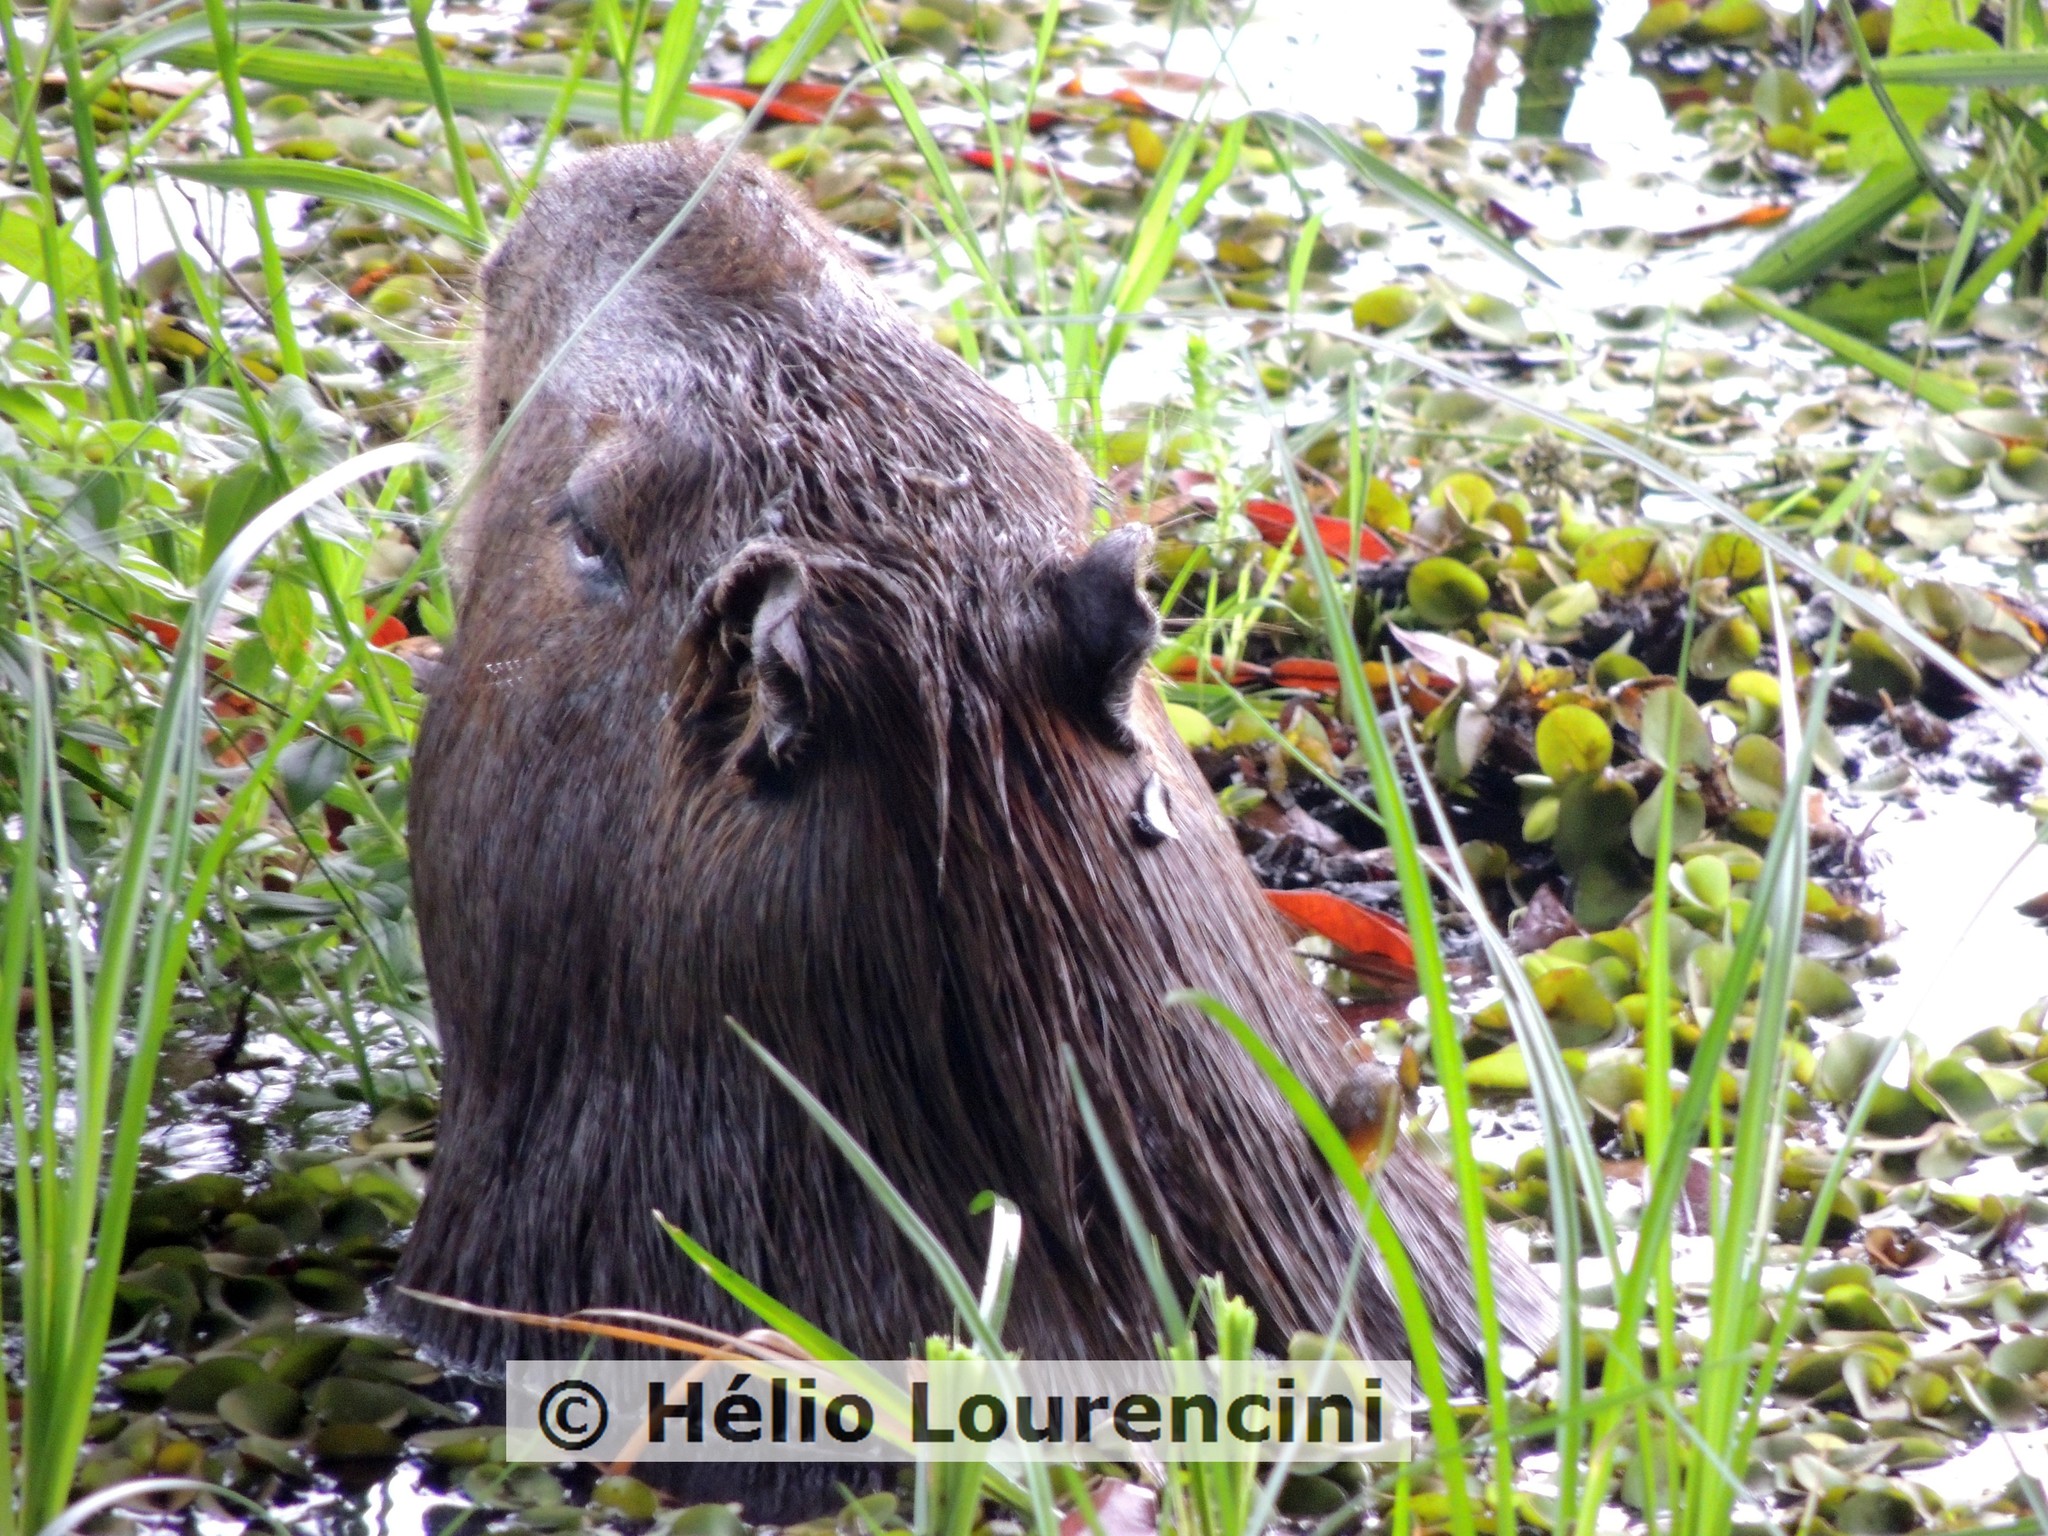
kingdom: Animalia
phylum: Chordata
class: Mammalia
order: Rodentia
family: Caviidae
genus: Hydrochoerus
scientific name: Hydrochoerus hydrochaeris
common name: Capybara
